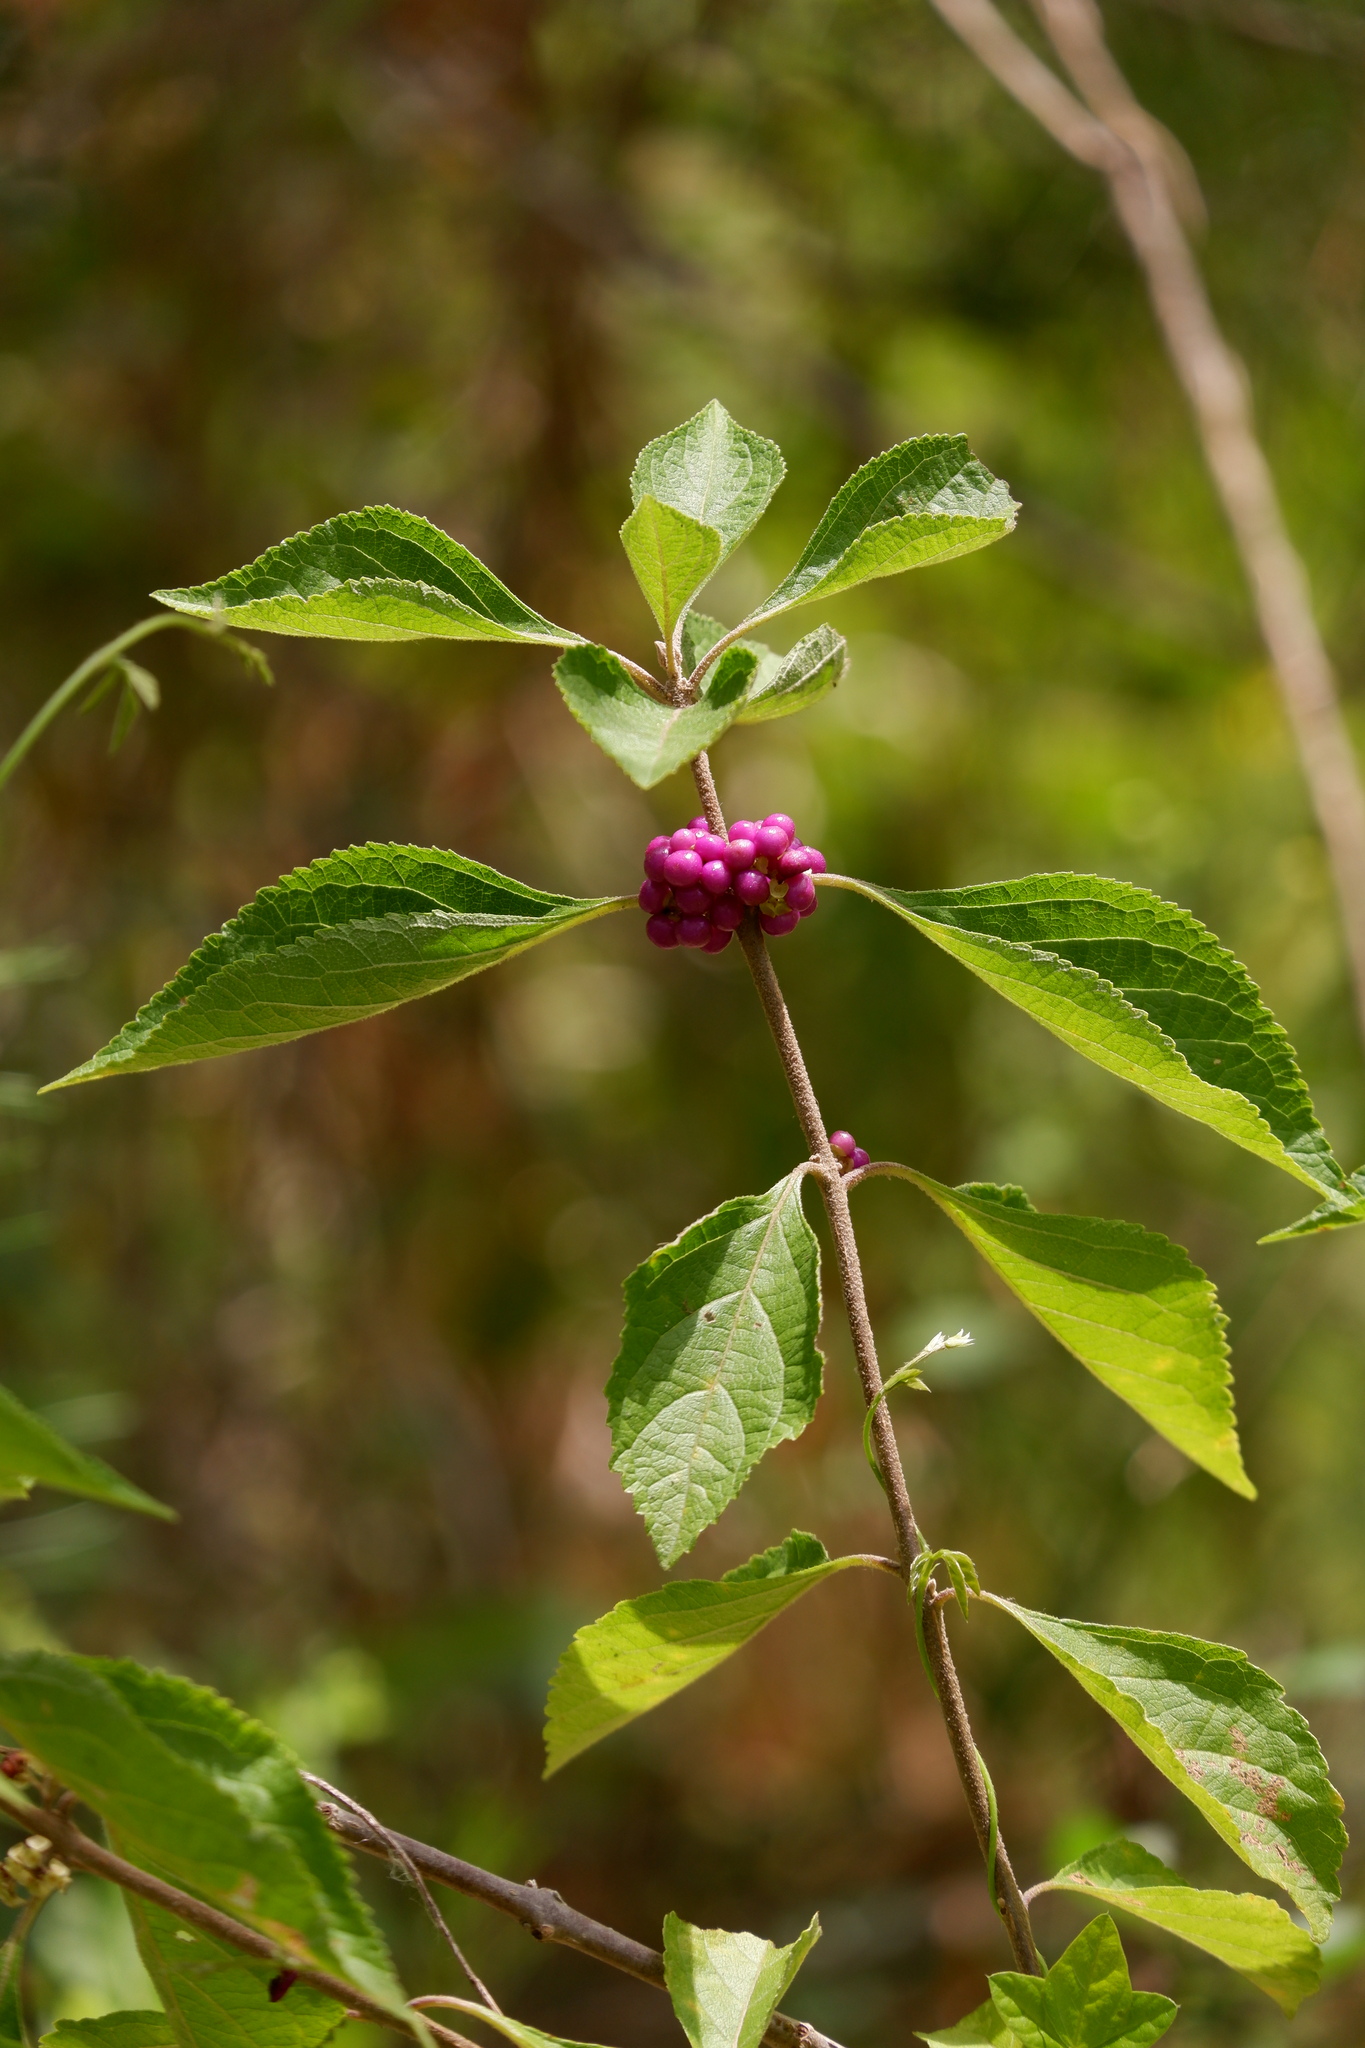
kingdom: Plantae
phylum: Tracheophyta
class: Magnoliopsida
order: Lamiales
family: Lamiaceae
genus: Callicarpa
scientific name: Callicarpa americana
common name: American beautyberry
